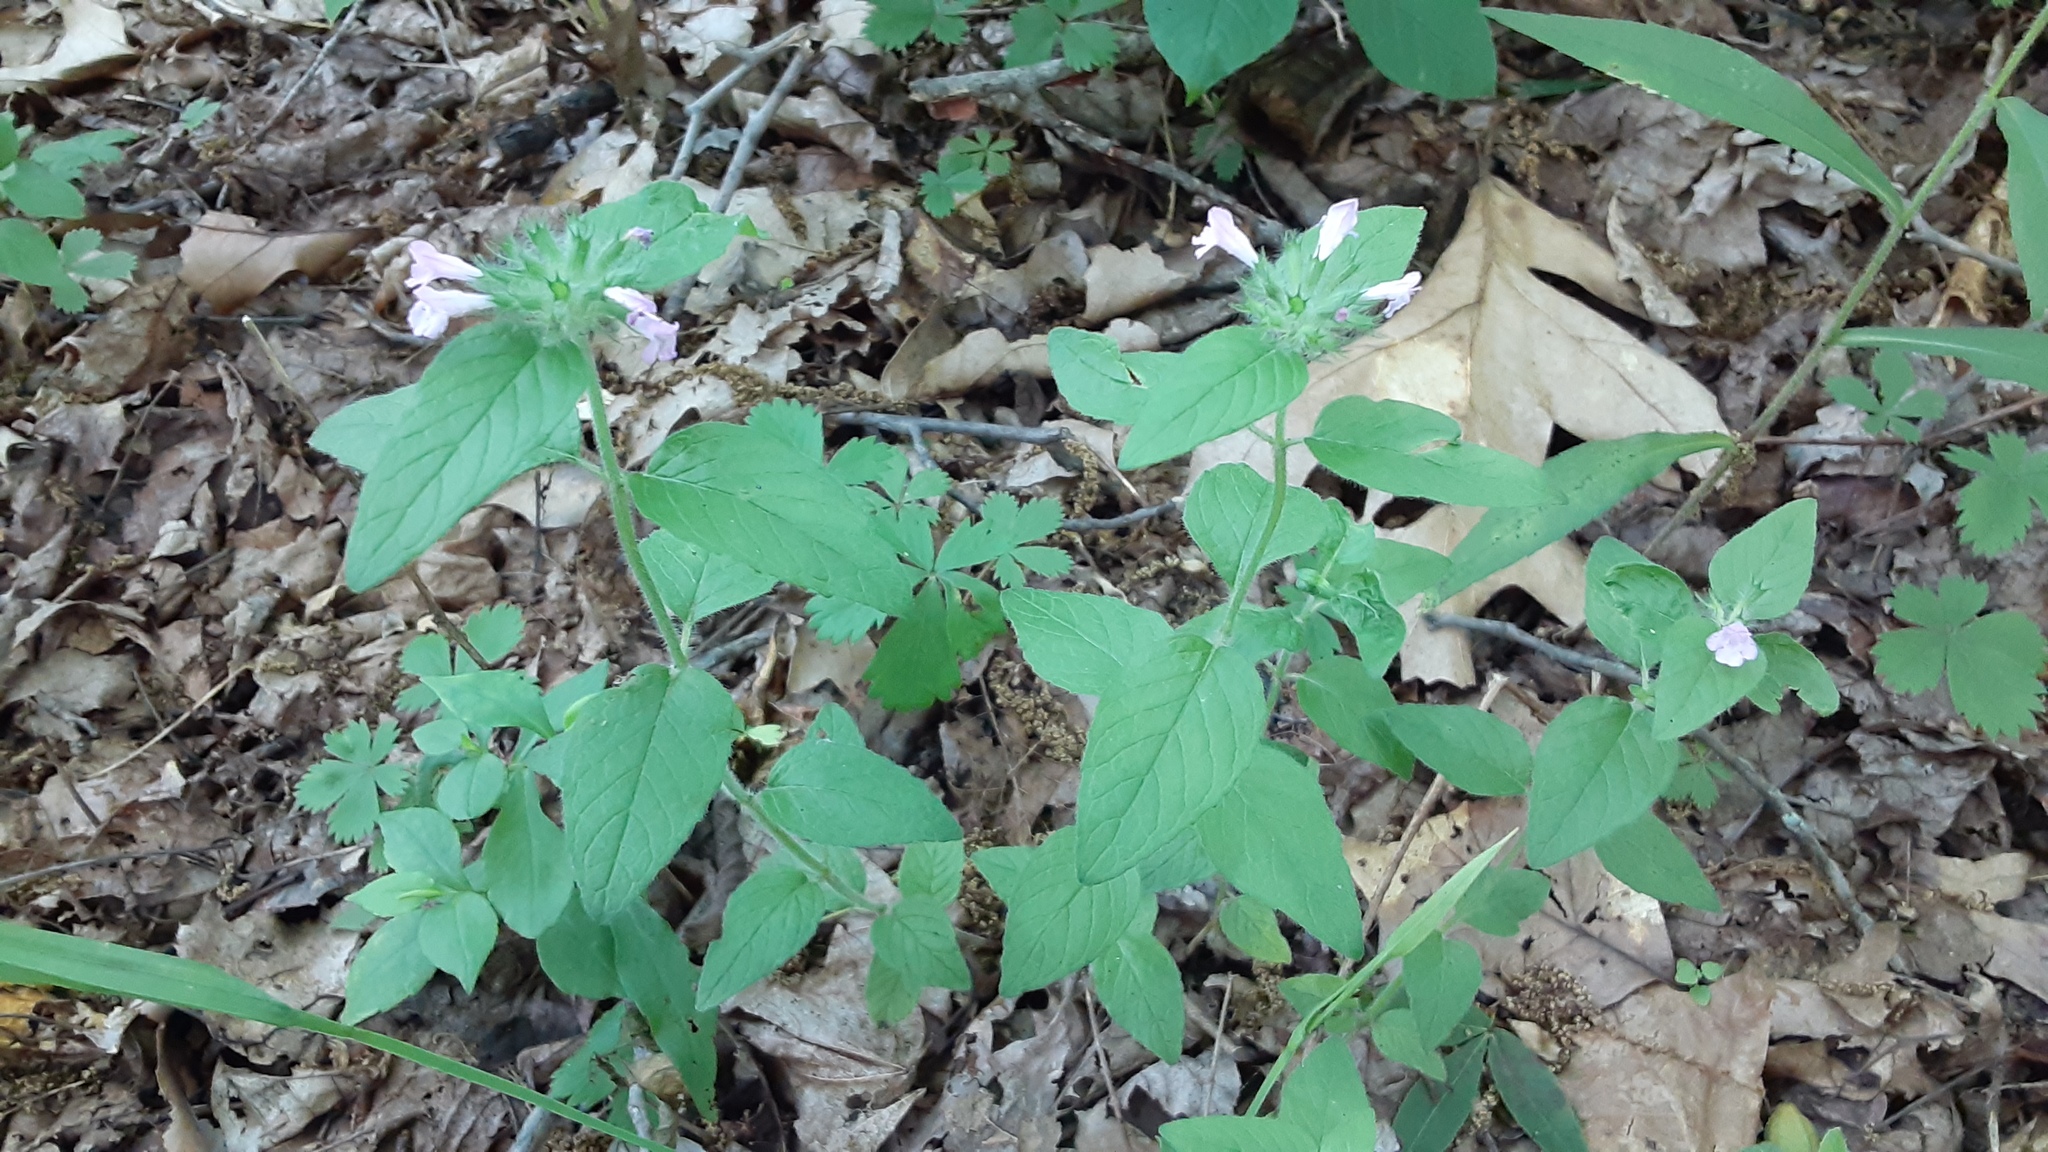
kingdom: Plantae
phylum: Tracheophyta
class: Magnoliopsida
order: Lamiales
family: Lamiaceae
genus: Clinopodium
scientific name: Clinopodium vulgare
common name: Wild basil
